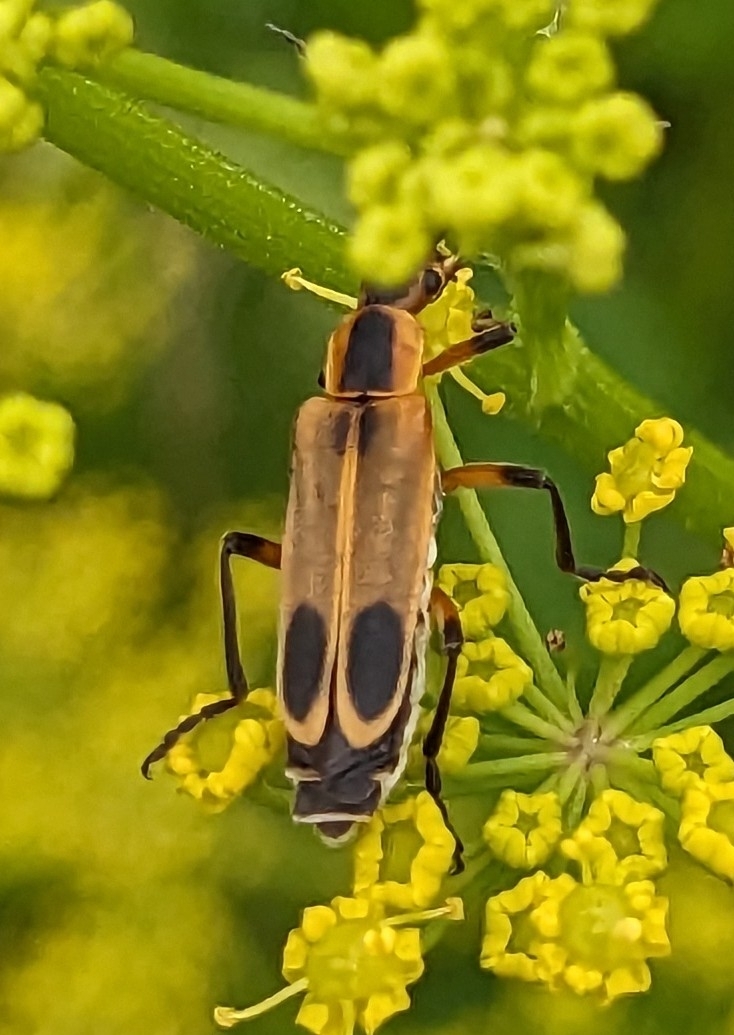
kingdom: Animalia
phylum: Arthropoda
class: Insecta
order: Coleoptera
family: Cantharidae
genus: Chauliognathus
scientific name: Chauliognathus marginatus
